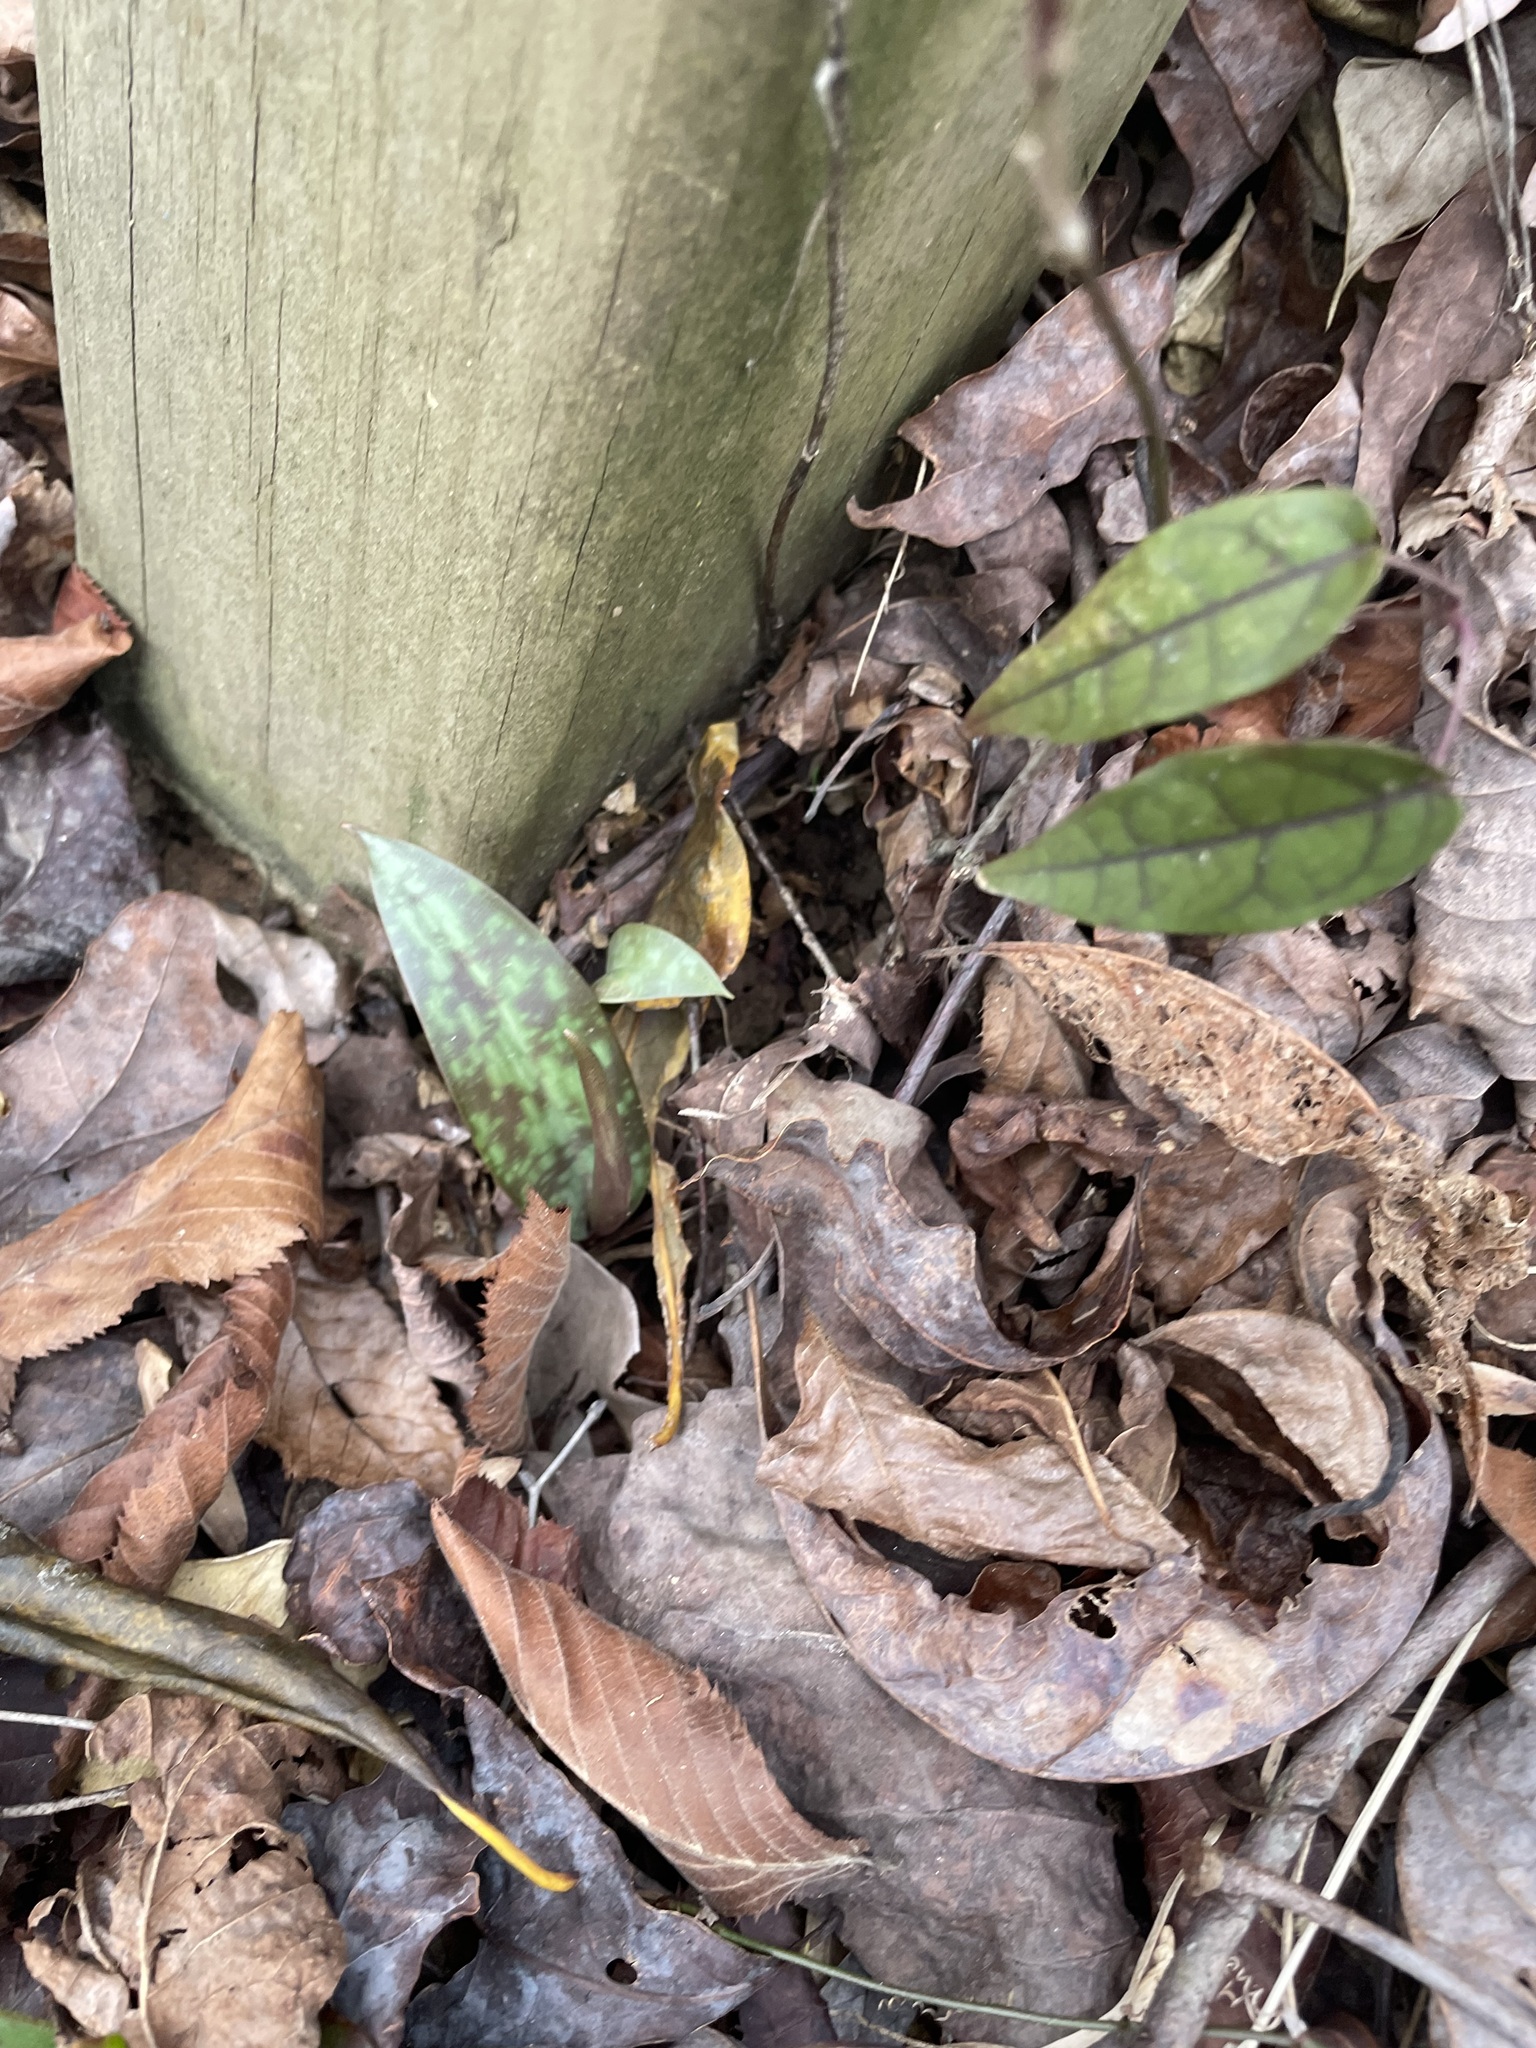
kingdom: Plantae
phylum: Tracheophyta
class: Liliopsida
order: Liliales
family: Liliaceae
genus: Erythronium
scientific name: Erythronium umbilicatum
